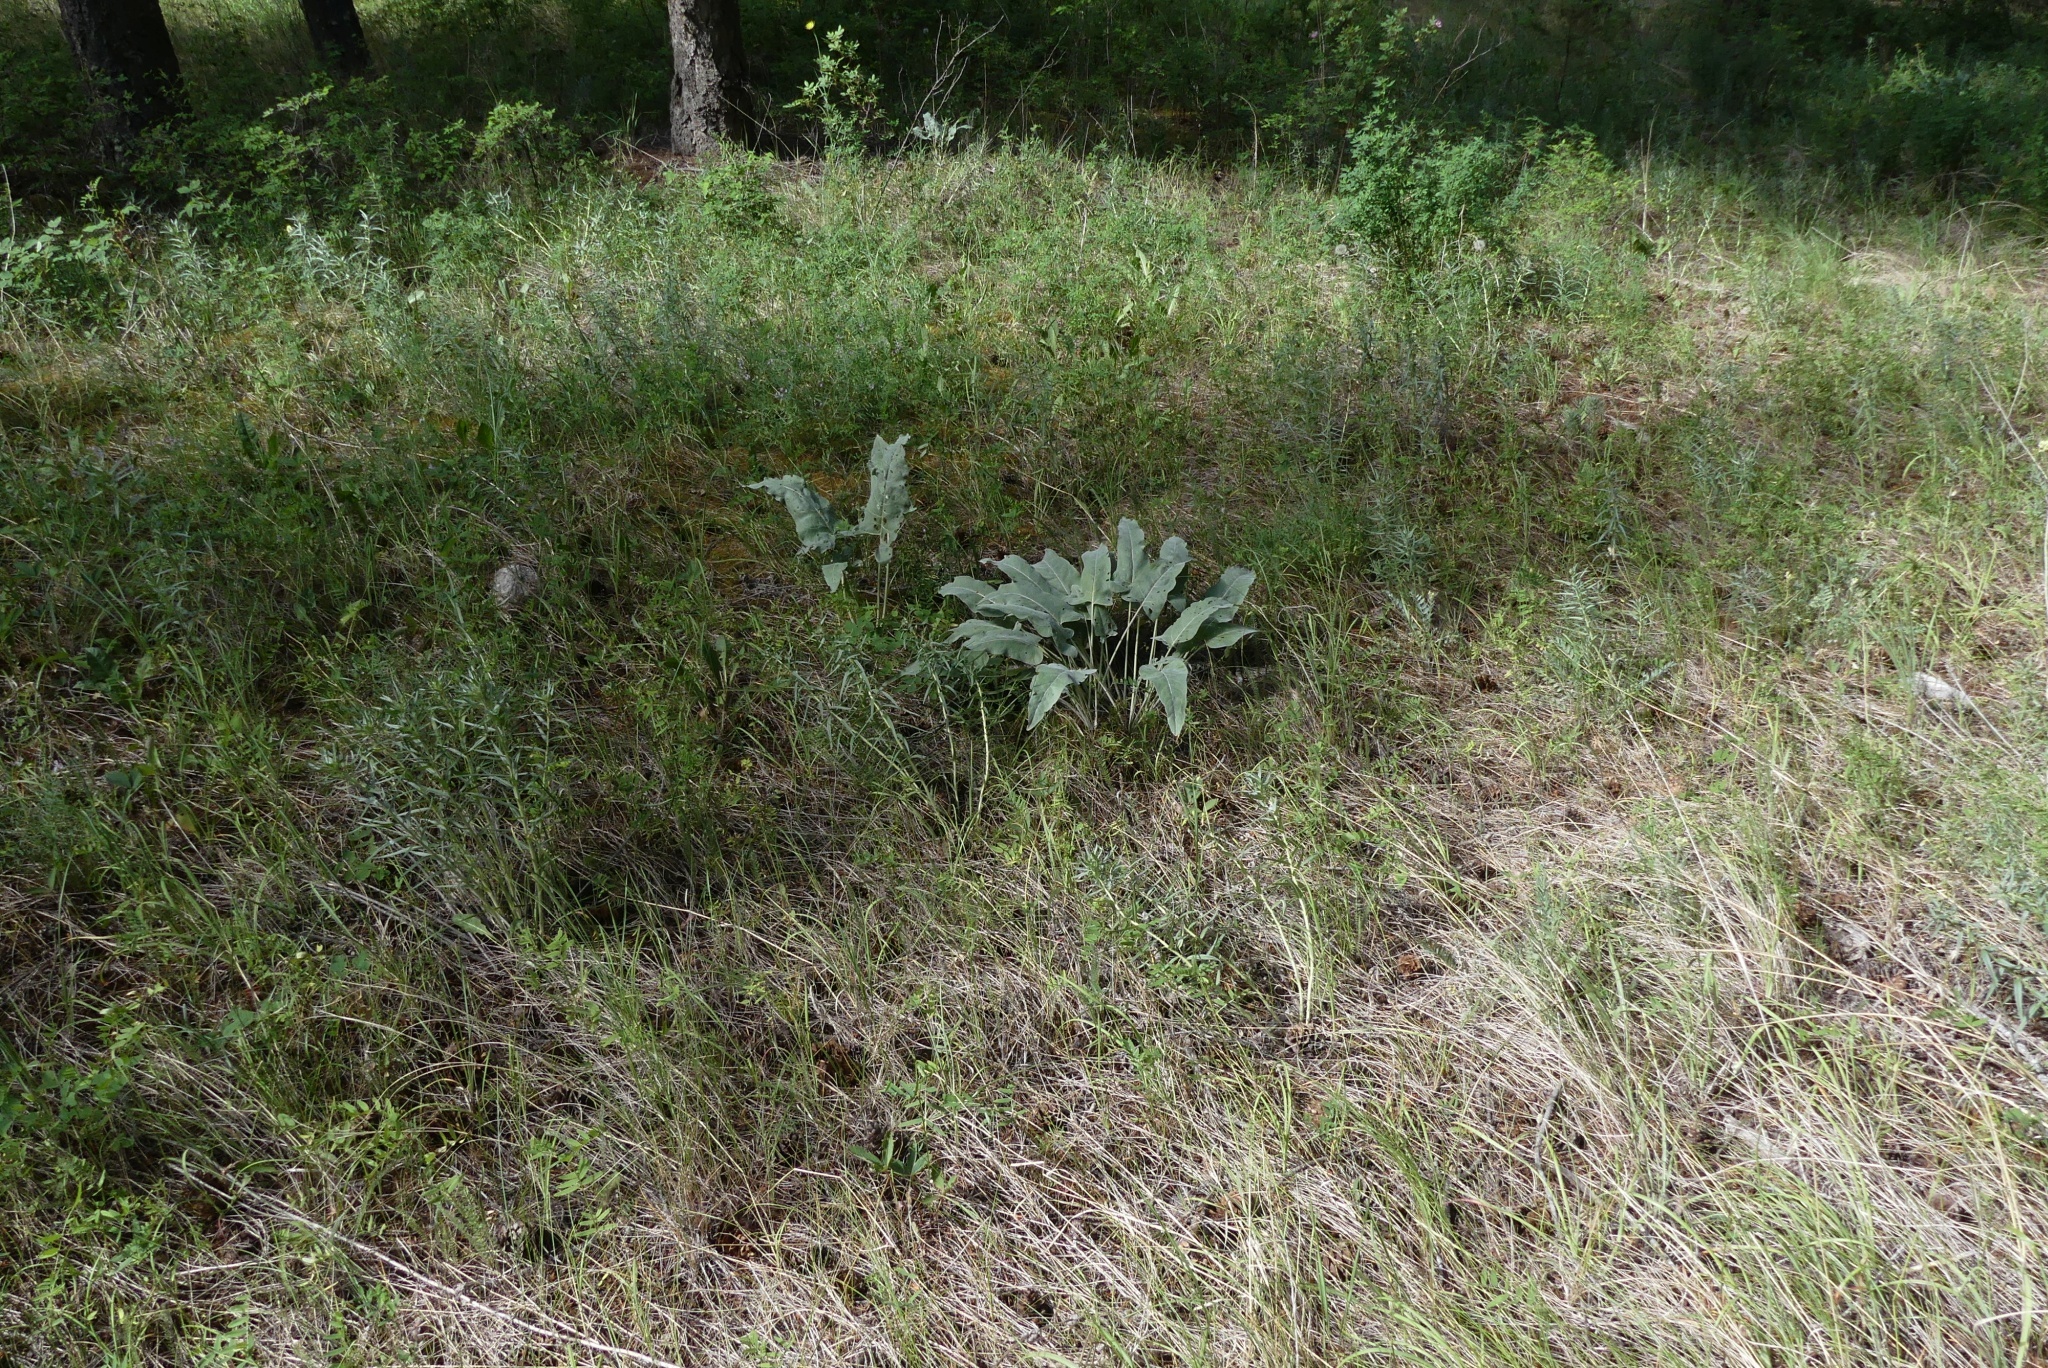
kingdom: Plantae
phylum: Tracheophyta
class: Magnoliopsida
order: Asterales
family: Asteraceae
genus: Wyethia
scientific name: Wyethia sagittata
